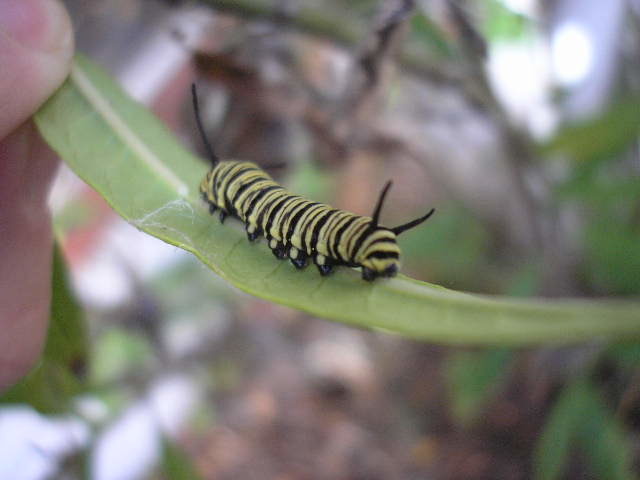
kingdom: Animalia
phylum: Arthropoda
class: Insecta
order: Lepidoptera
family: Nymphalidae
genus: Danaus
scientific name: Danaus erippus
